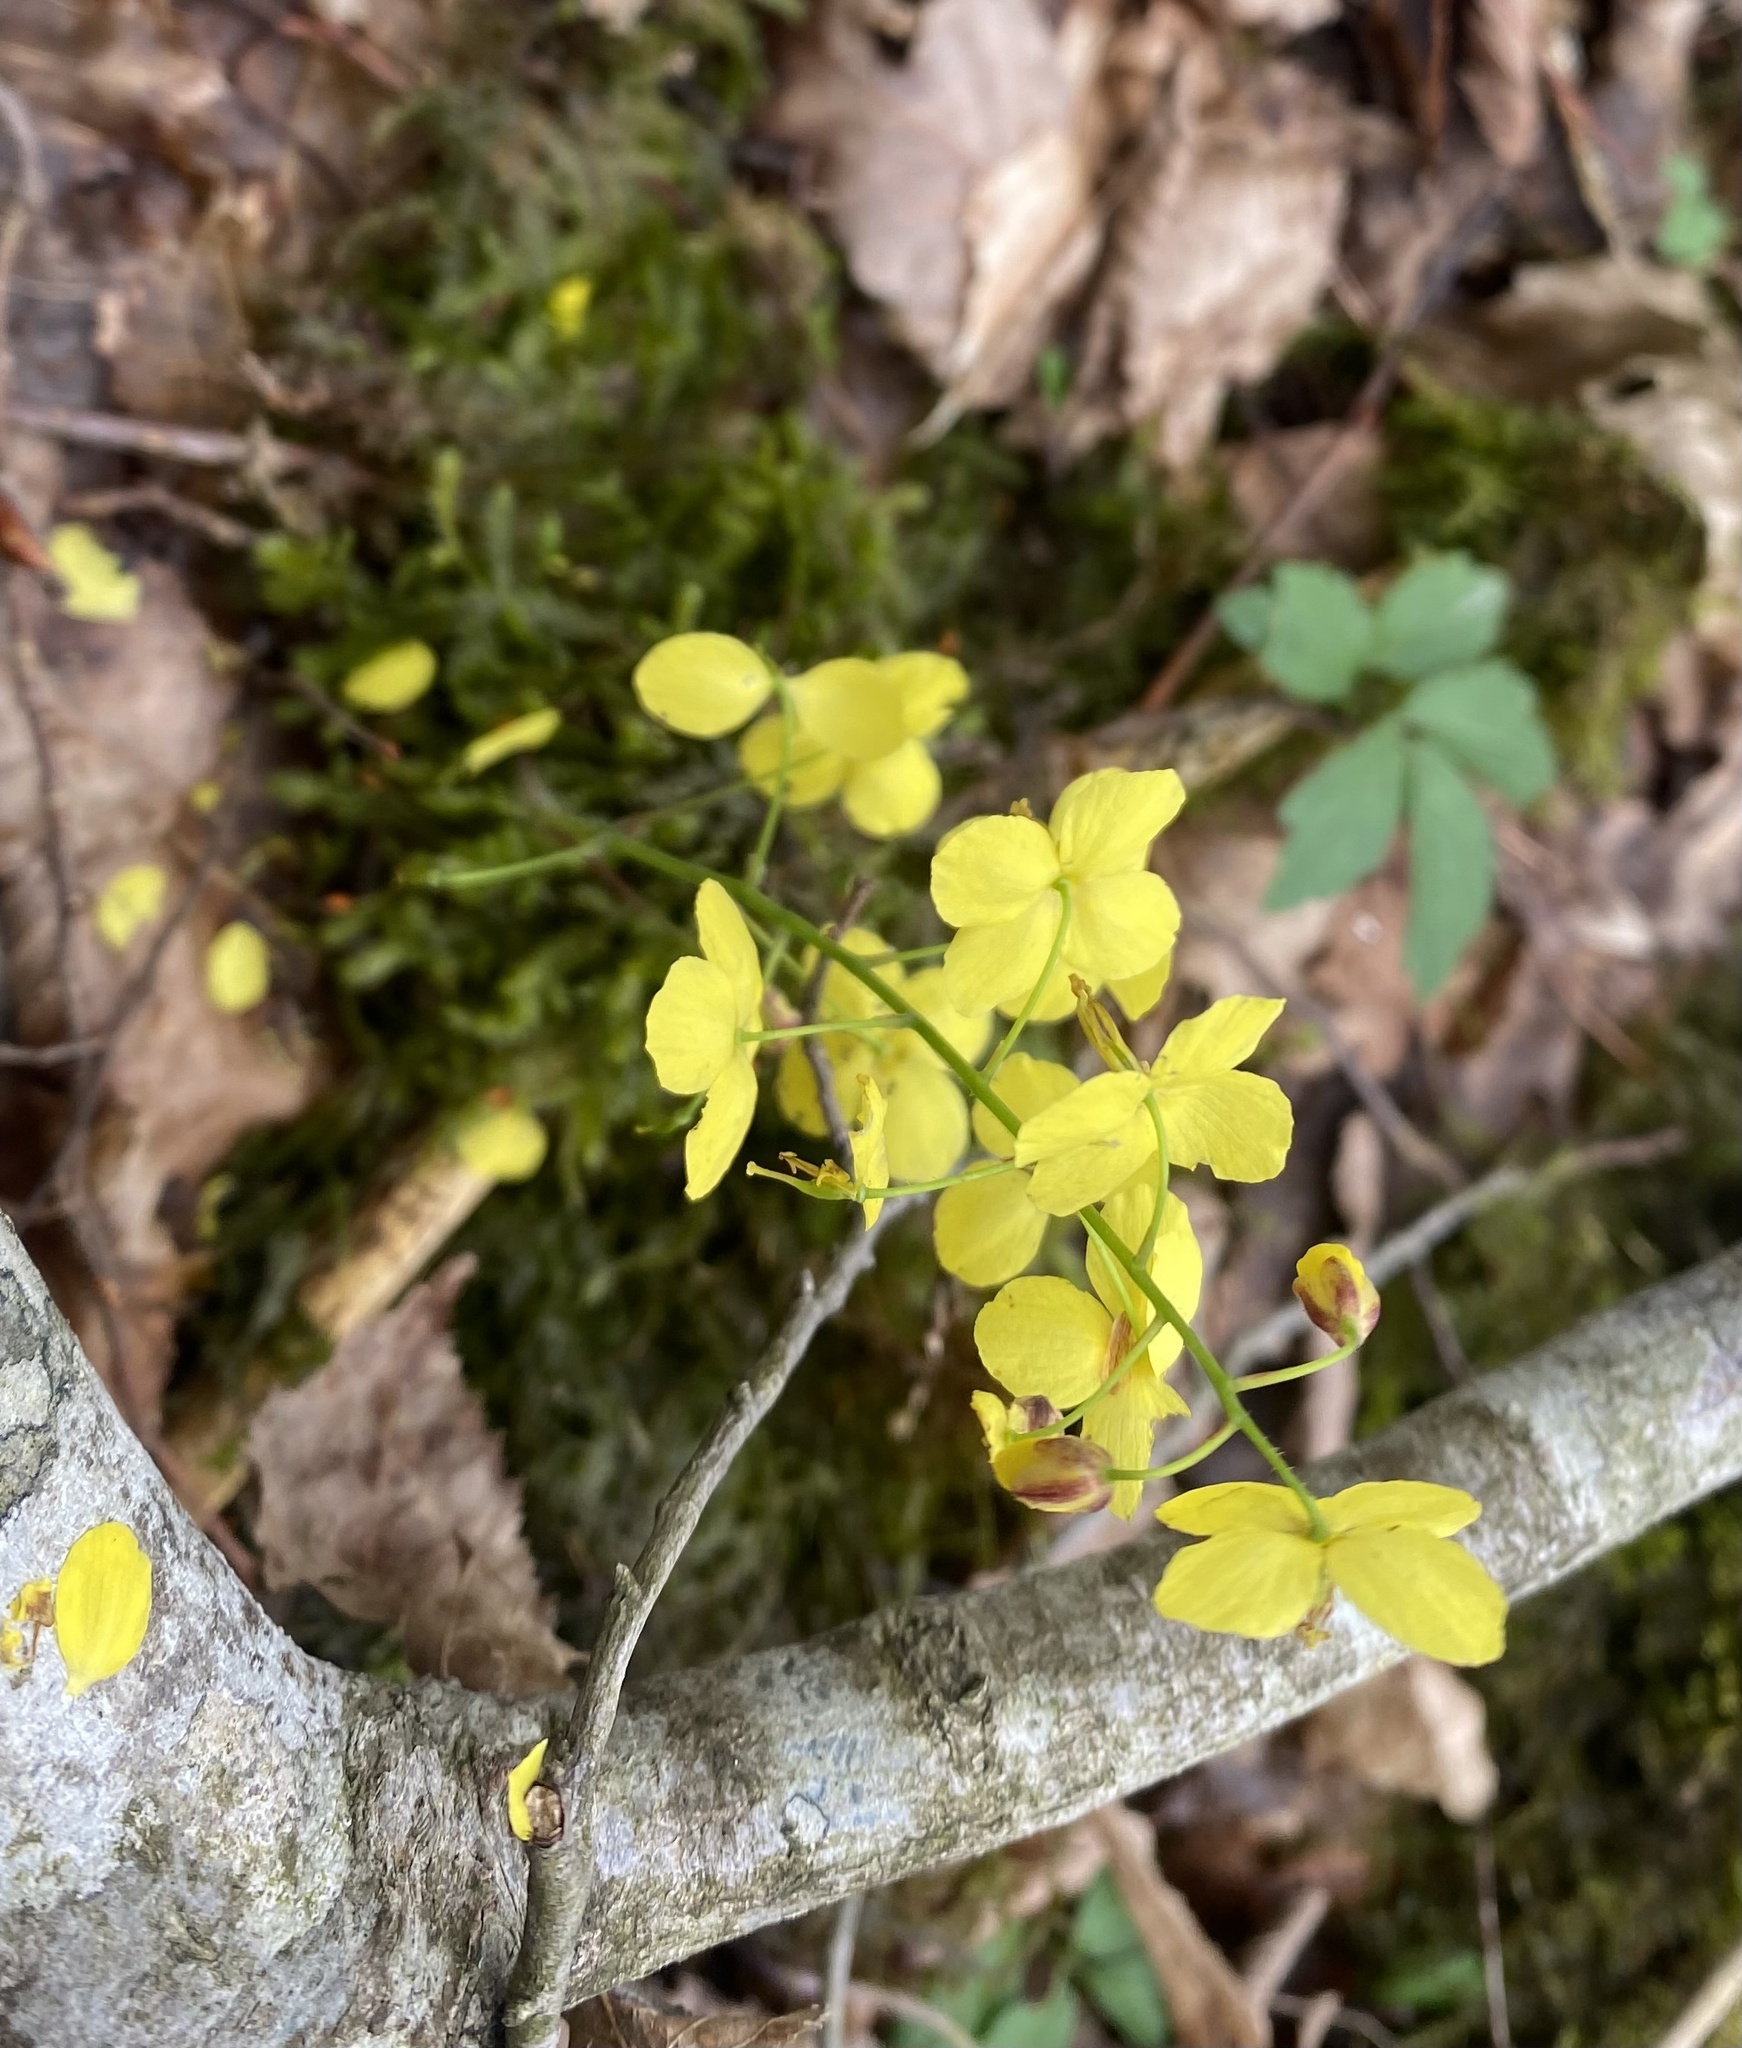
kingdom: Plantae
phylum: Tracheophyta
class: Magnoliopsida
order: Ranunculales
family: Berberidaceae
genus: Epimedium
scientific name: Epimedium pinnatum
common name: Caucasian barrenwort
